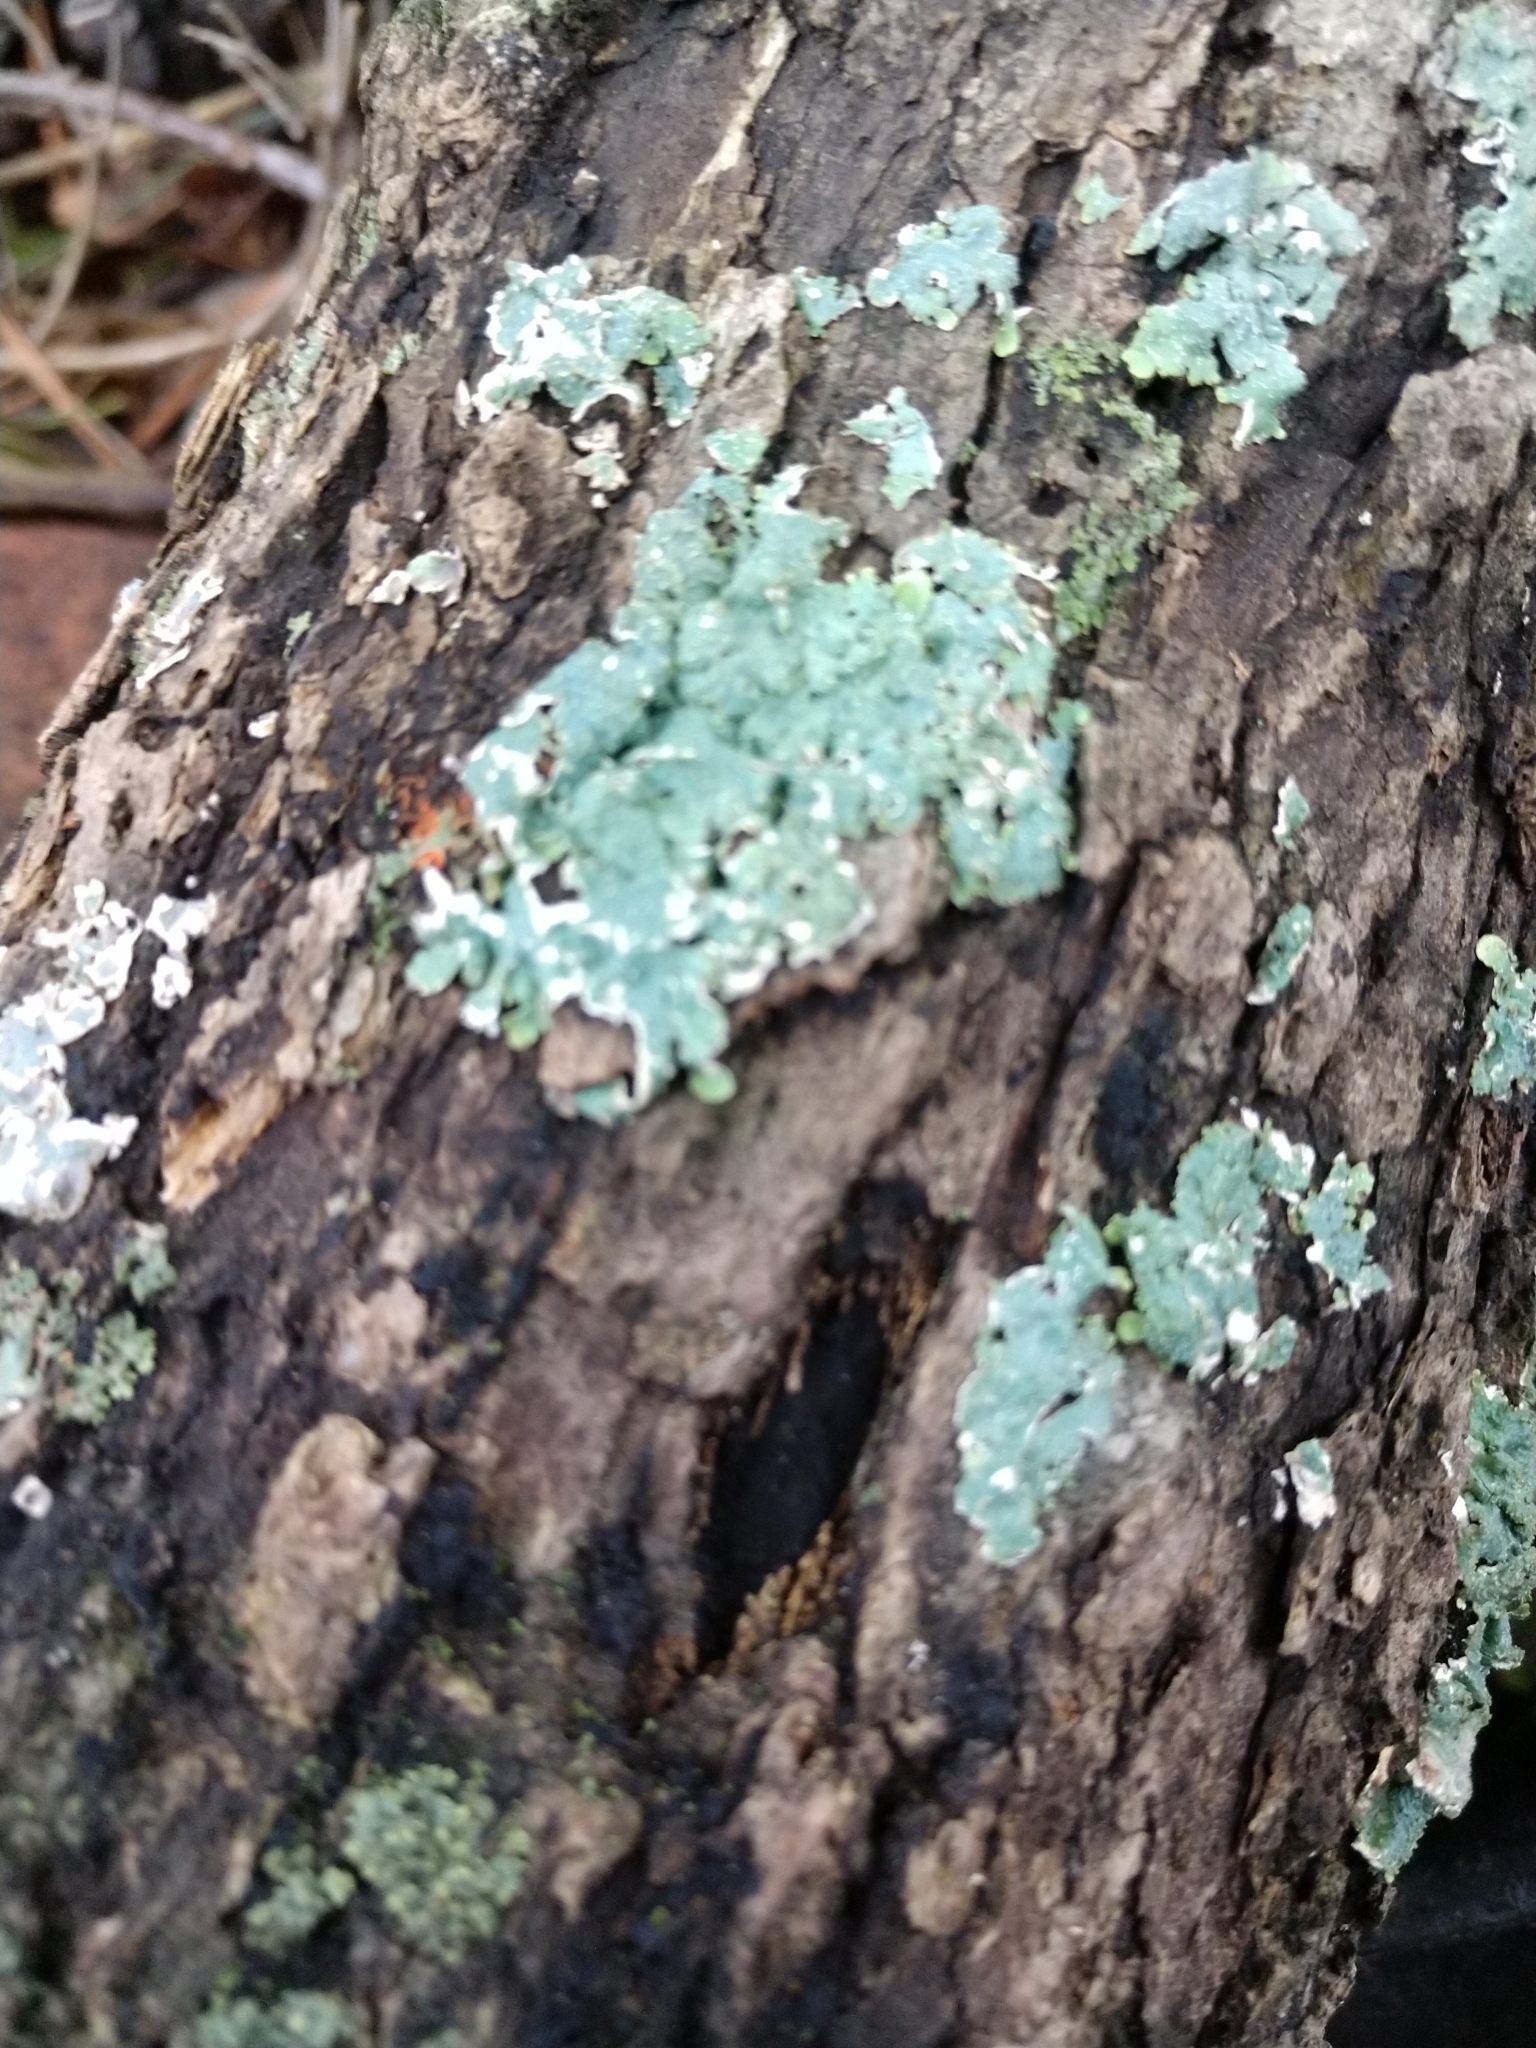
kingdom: Fungi
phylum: Ascomycota
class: Lecanoromycetes
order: Lecanorales
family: Parmeliaceae
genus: Punctelia
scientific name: Punctelia rudecta
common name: Rough speckled shield lichen
